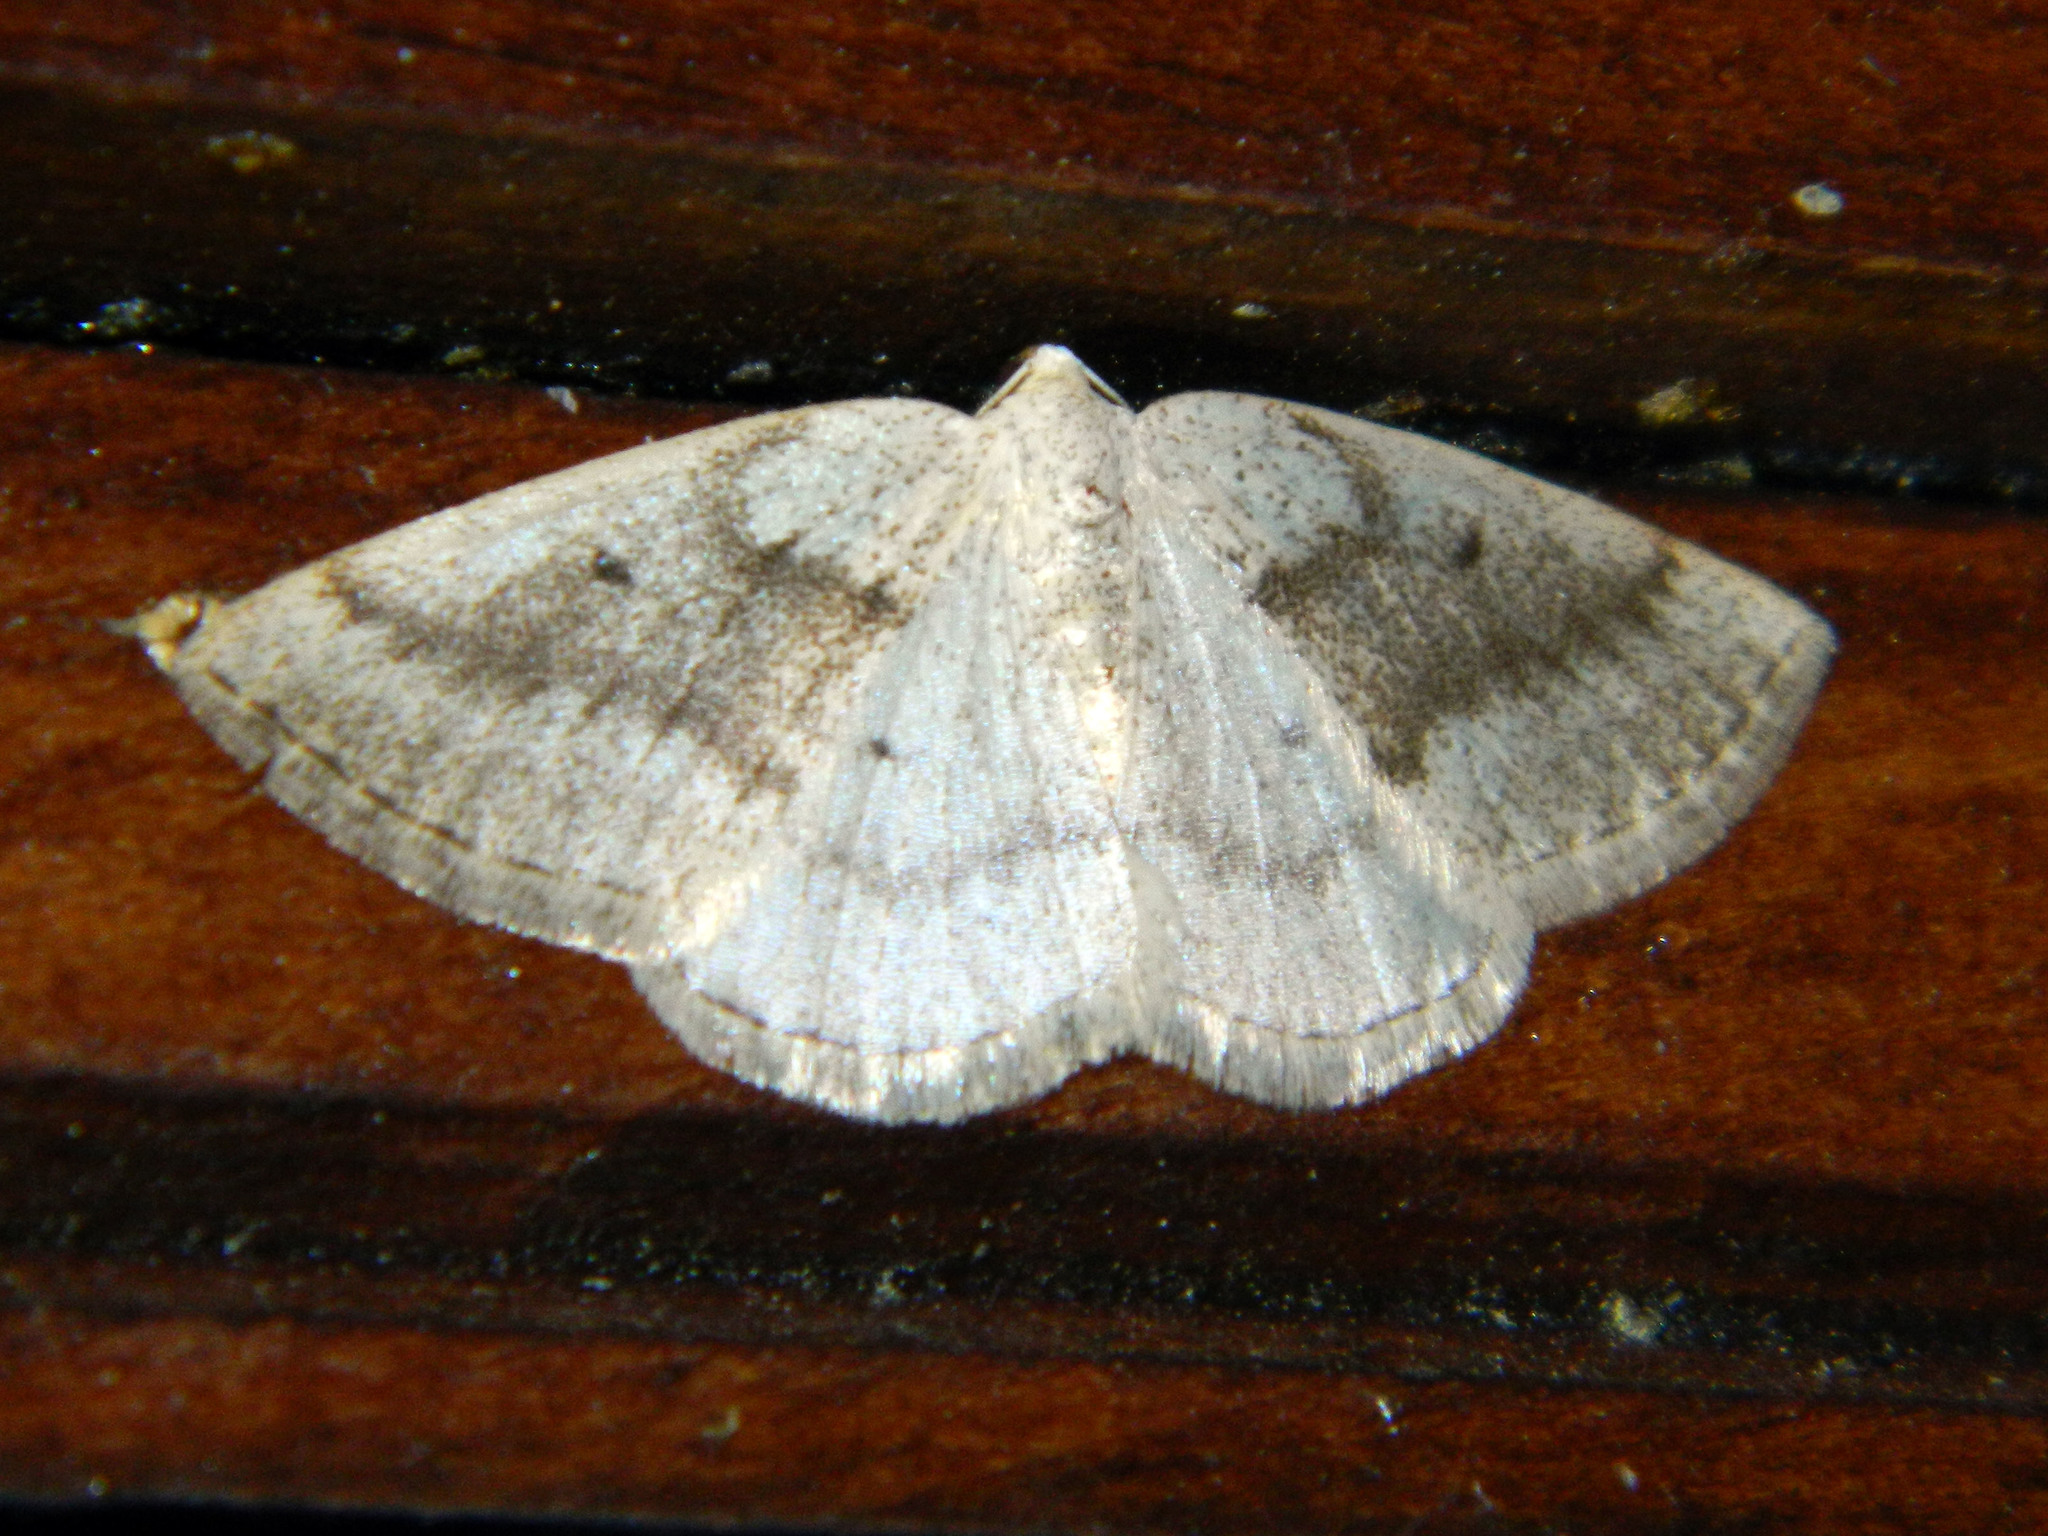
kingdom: Animalia
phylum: Arthropoda
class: Insecta
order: Lepidoptera
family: Geometridae
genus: Lomographa
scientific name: Lomographa glomeraria
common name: Gray spring moth
